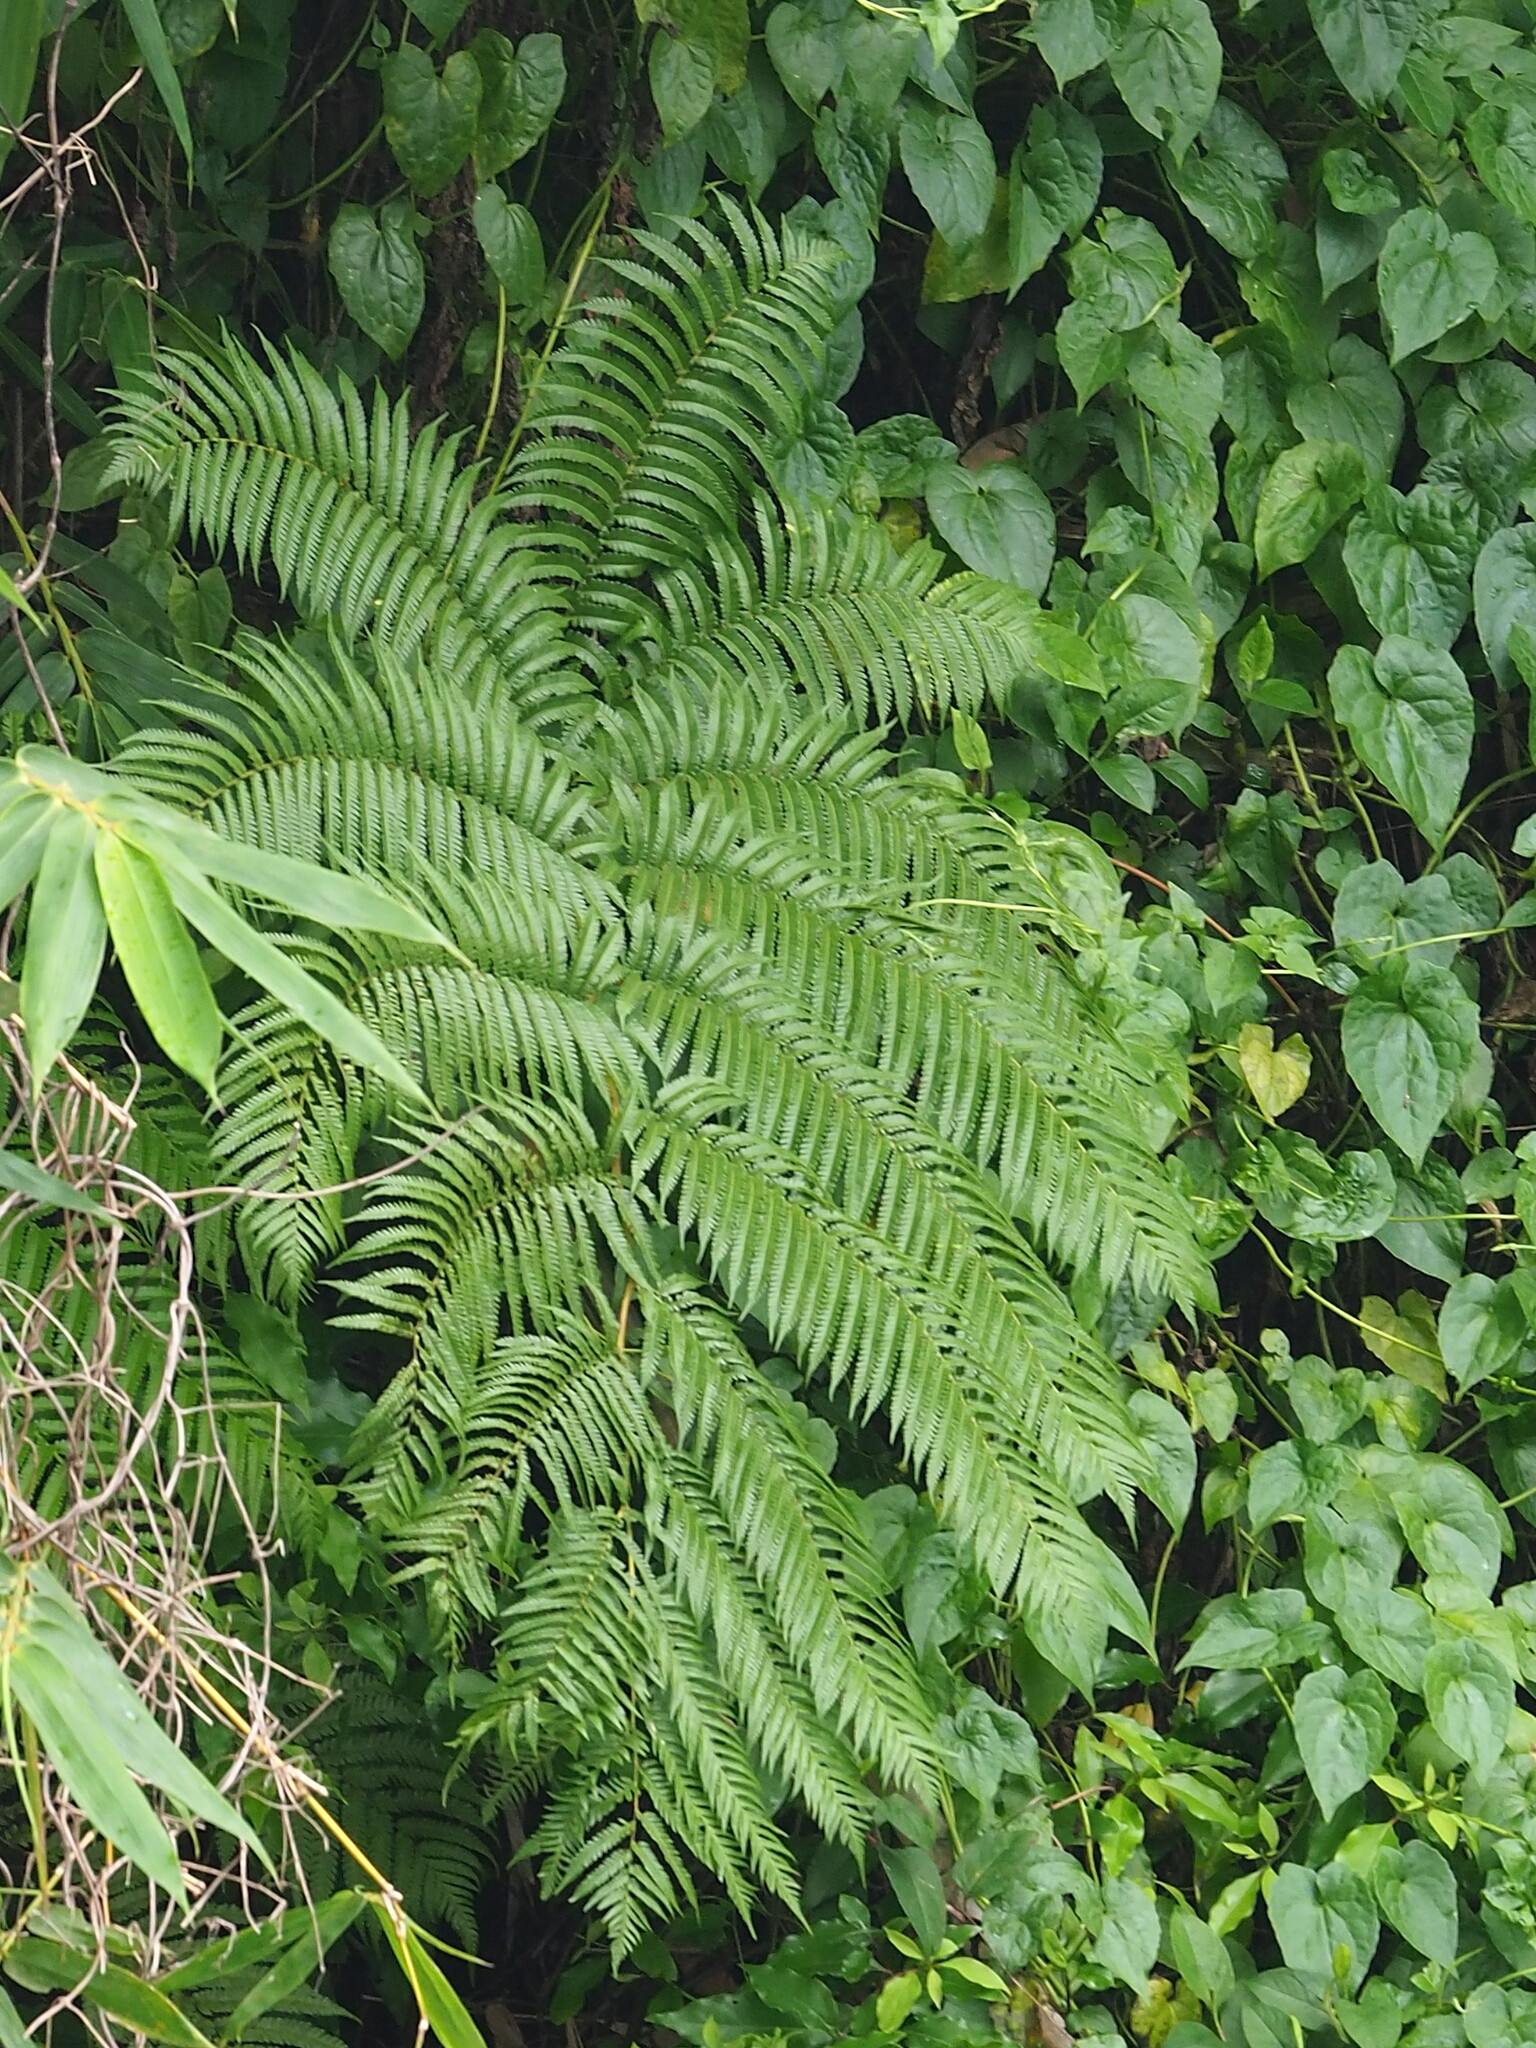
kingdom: Plantae
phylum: Tracheophyta
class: Polypodiopsida
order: Cyatheales
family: Cyatheaceae
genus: Alsophila
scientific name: Alsophila lepifera
